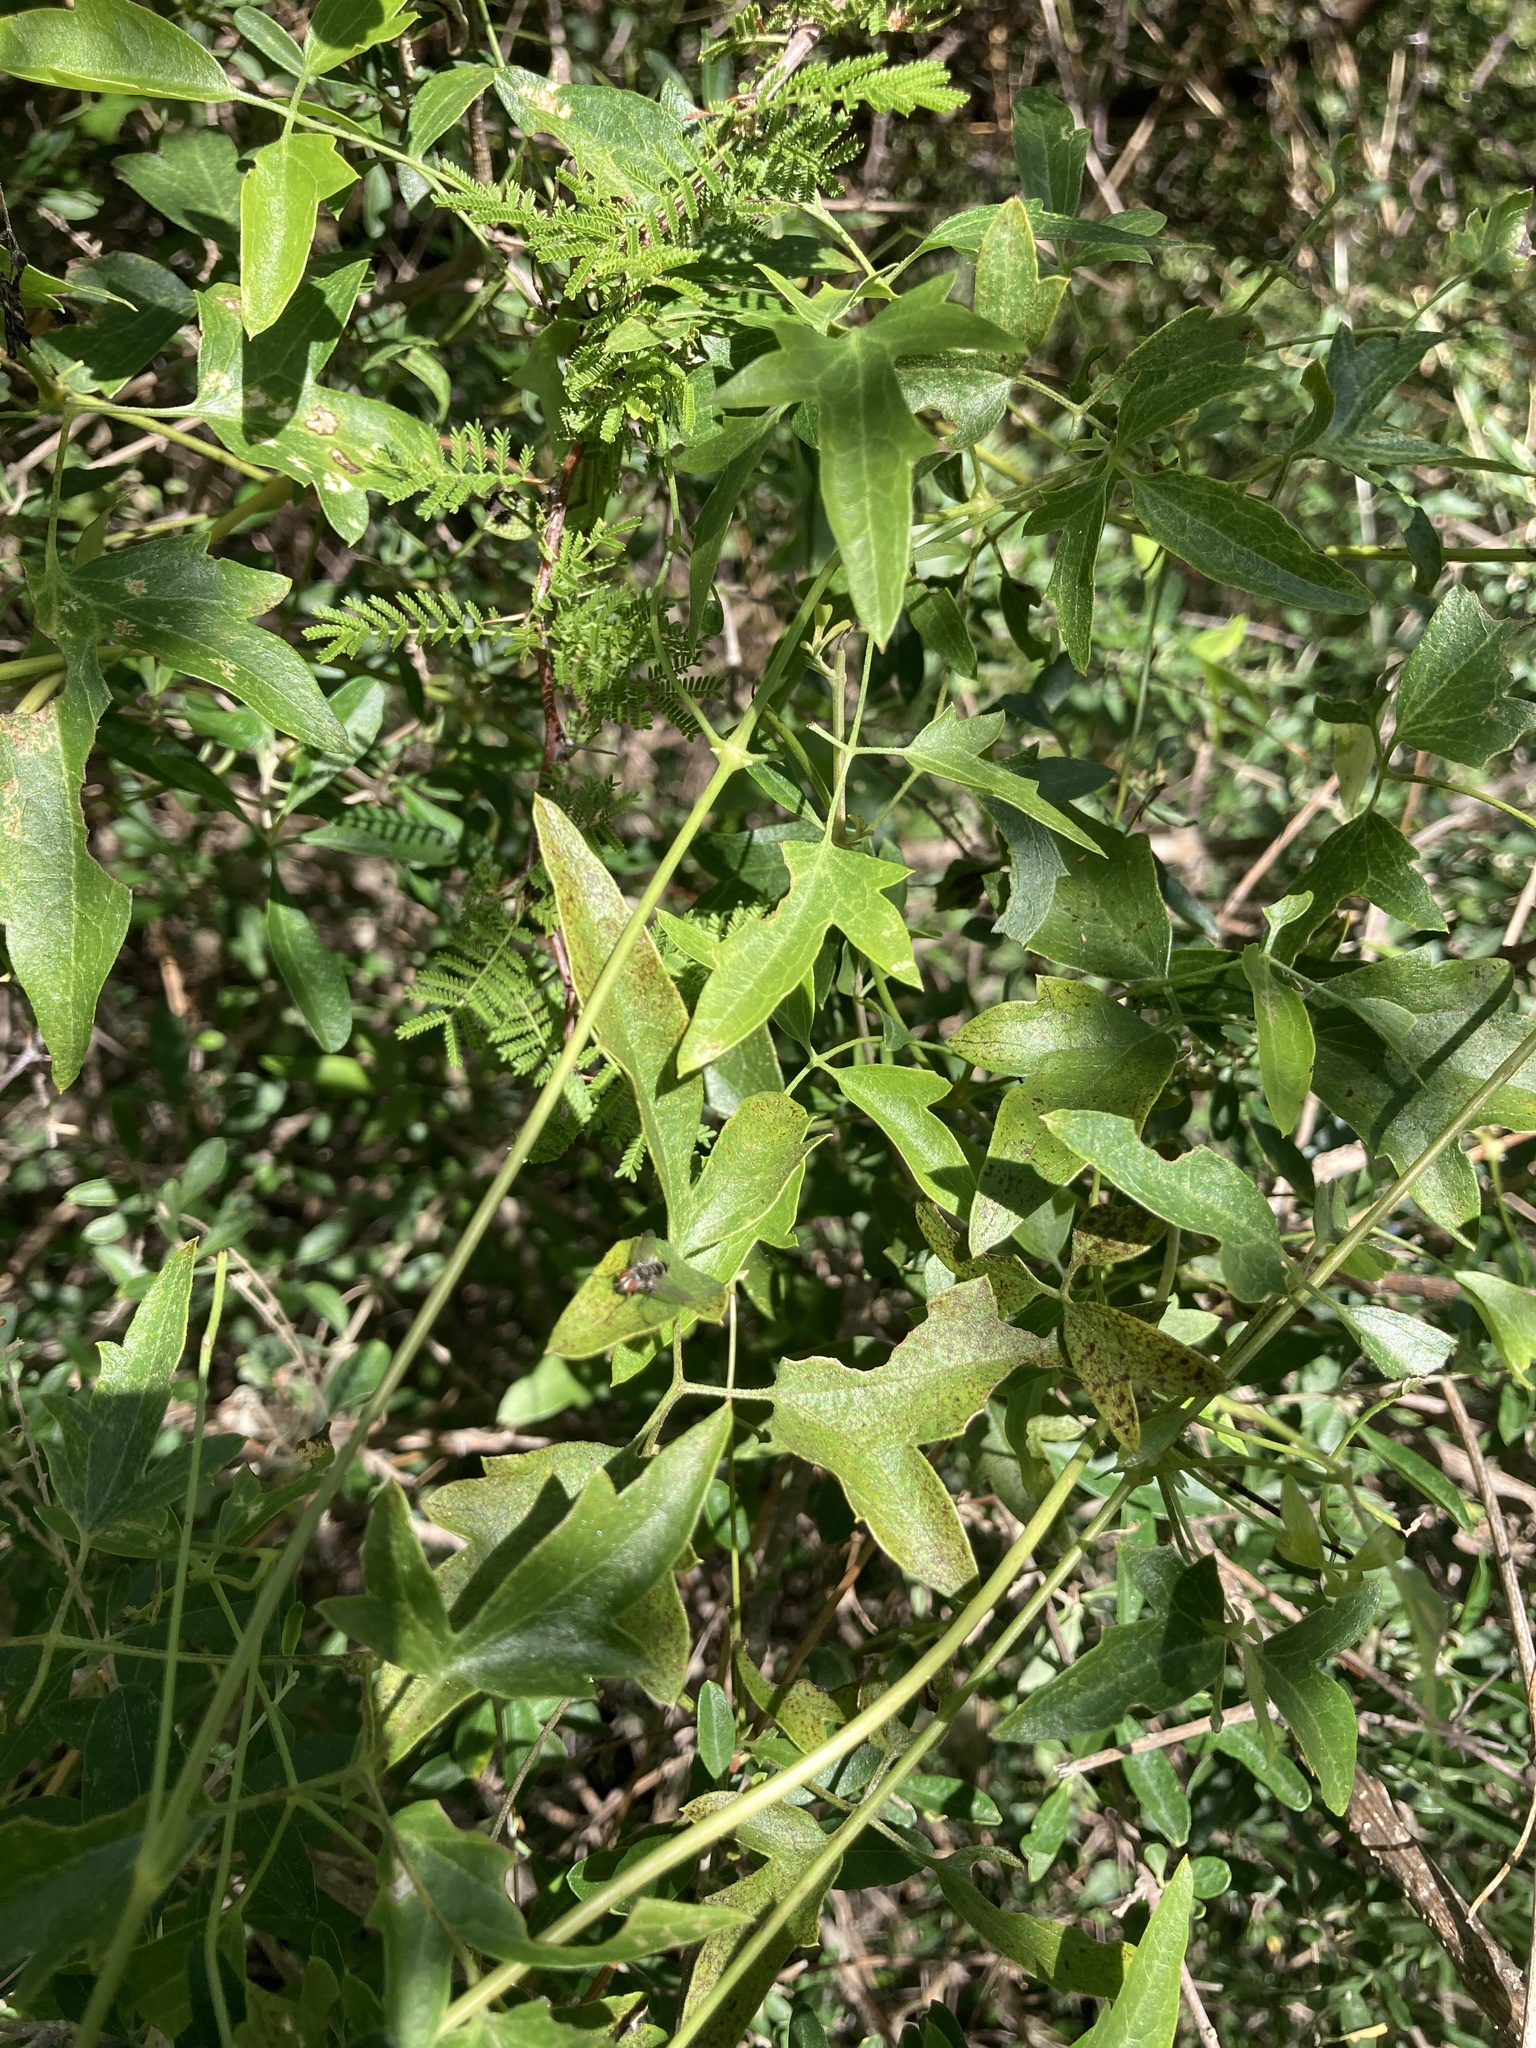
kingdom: Plantae
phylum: Tracheophyta
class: Magnoliopsida
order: Ranunculales
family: Ranunculaceae
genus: Clematis
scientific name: Clematis montevidensis
